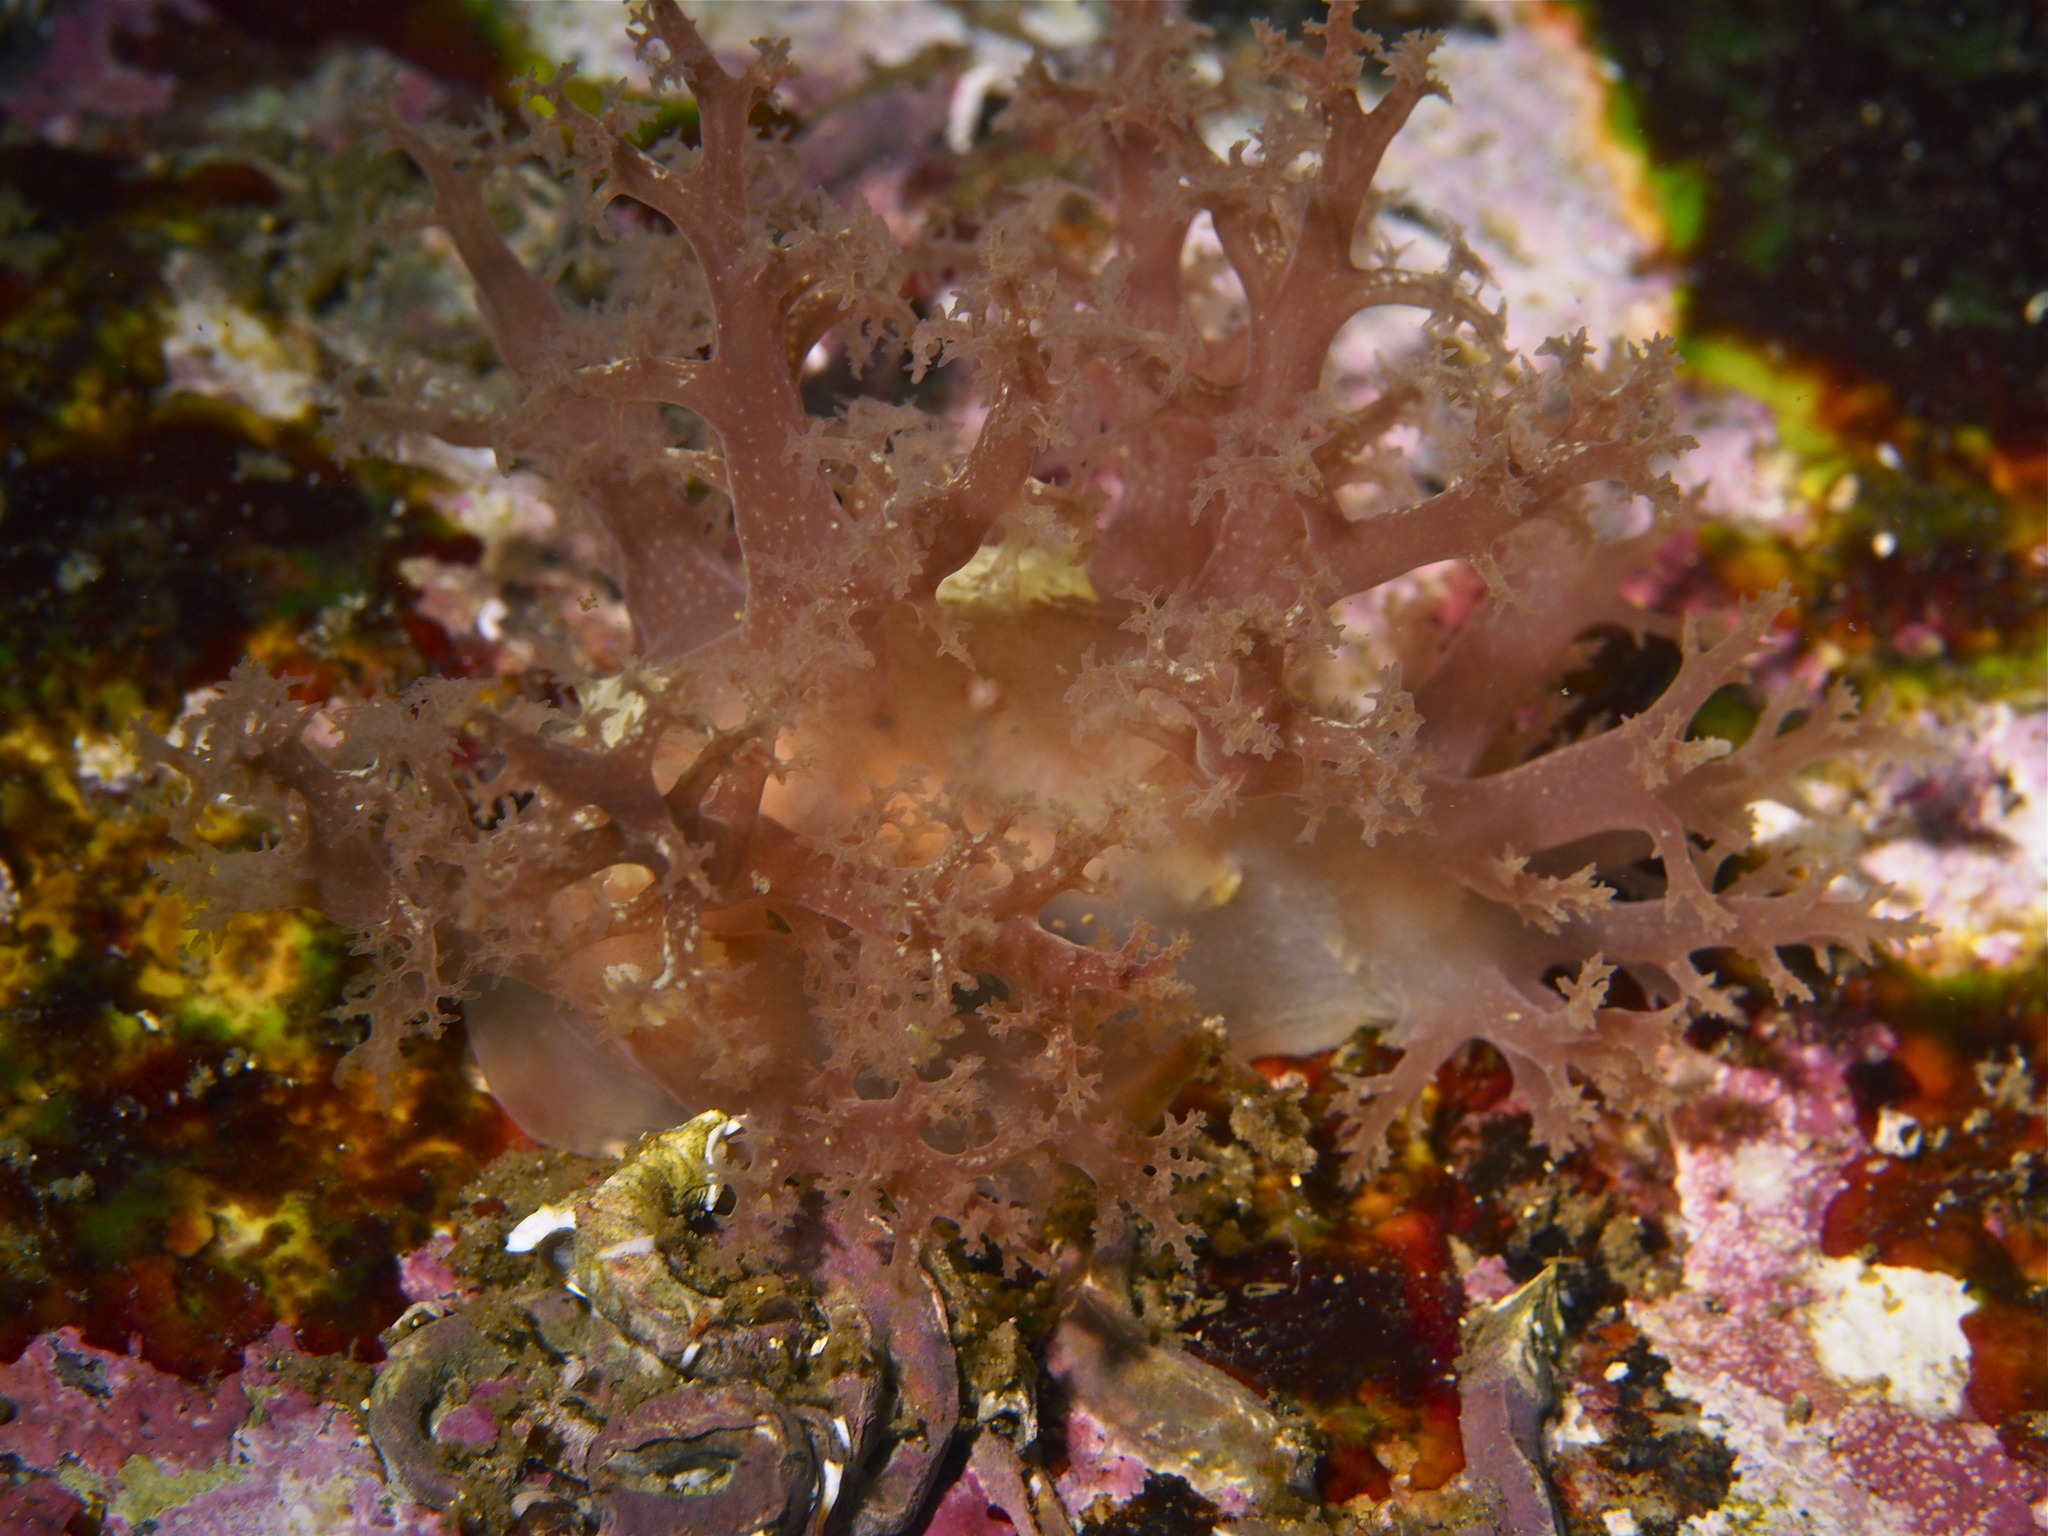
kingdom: Animalia
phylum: Mollusca
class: Gastropoda
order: Nudibranchia
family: Dendronotidae
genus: Dendronotus
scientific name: Dendronotus lacteus
